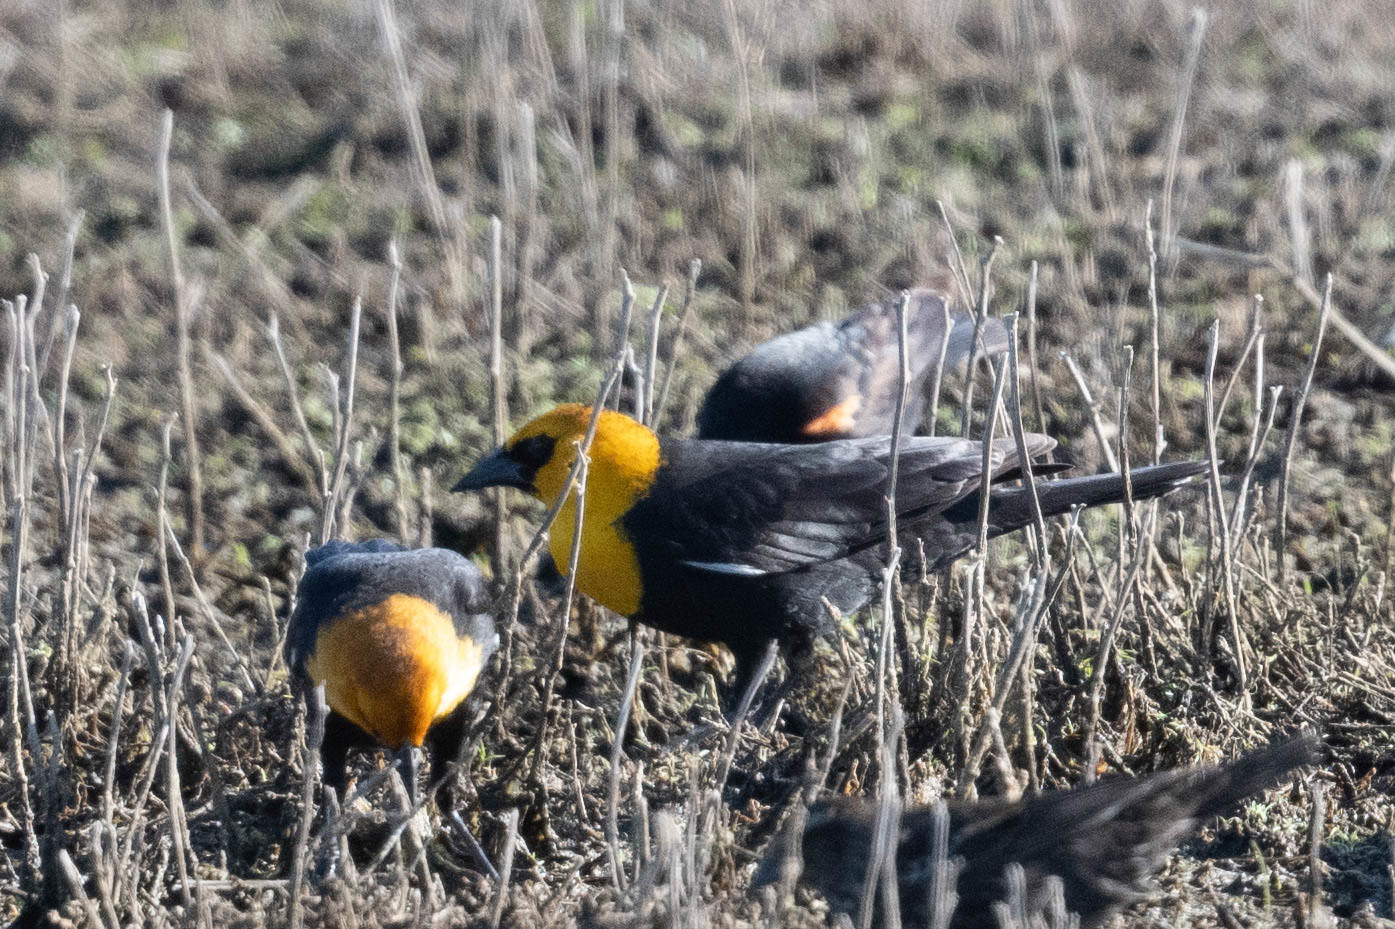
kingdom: Animalia
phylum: Chordata
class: Aves
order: Passeriformes
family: Icteridae
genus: Xanthocephalus
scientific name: Xanthocephalus xanthocephalus
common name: Yellow-headed blackbird
